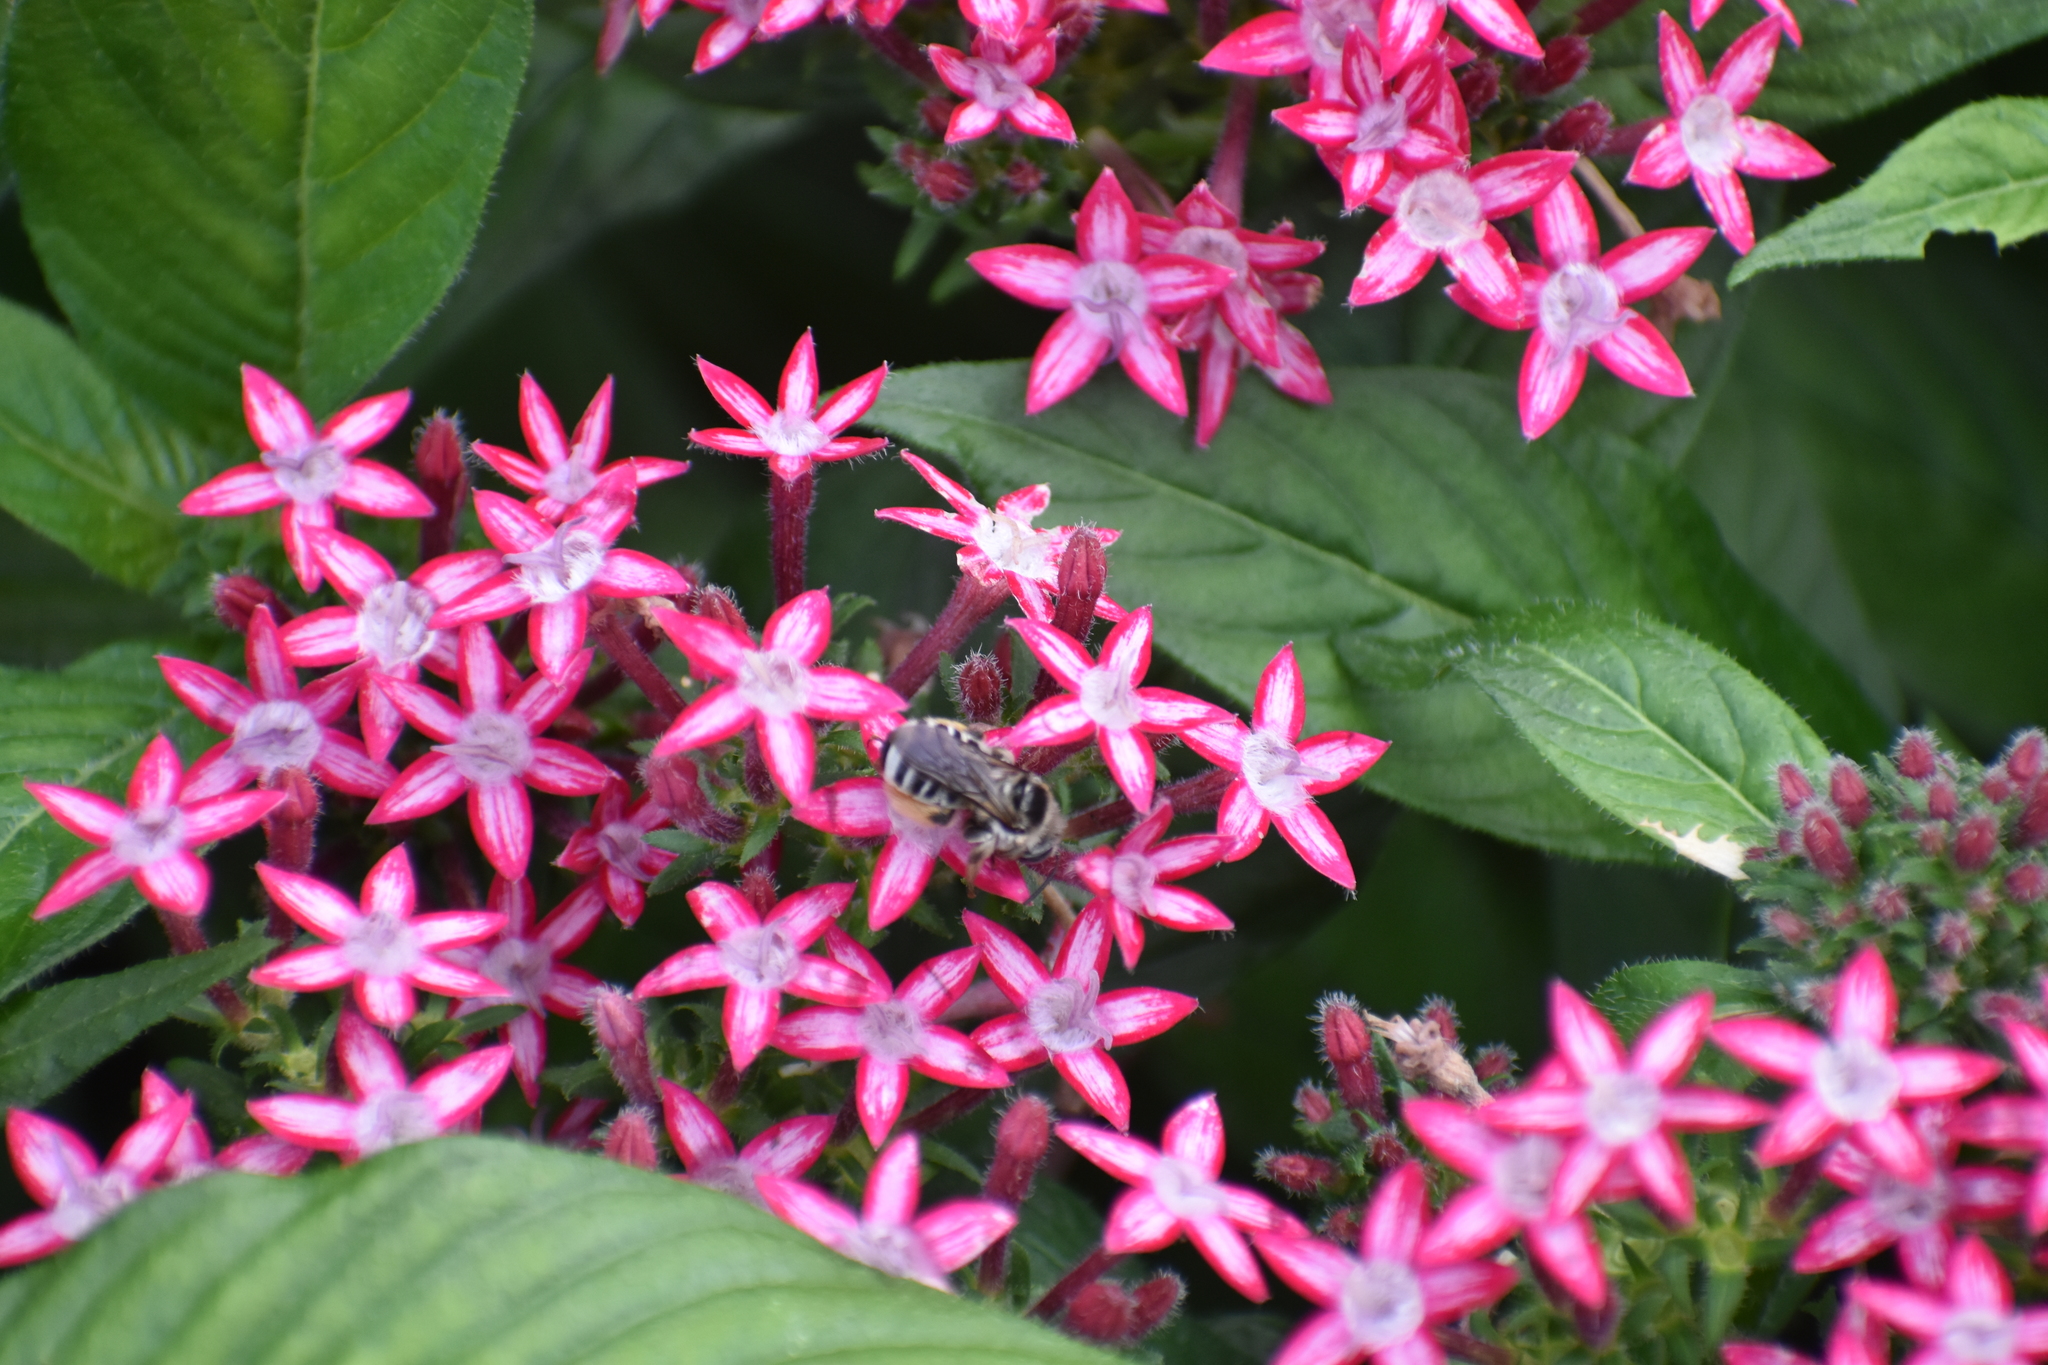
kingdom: Animalia
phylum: Arthropoda
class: Insecta
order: Hymenoptera
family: Apidae
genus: Melissodes
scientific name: Melissodes communis
